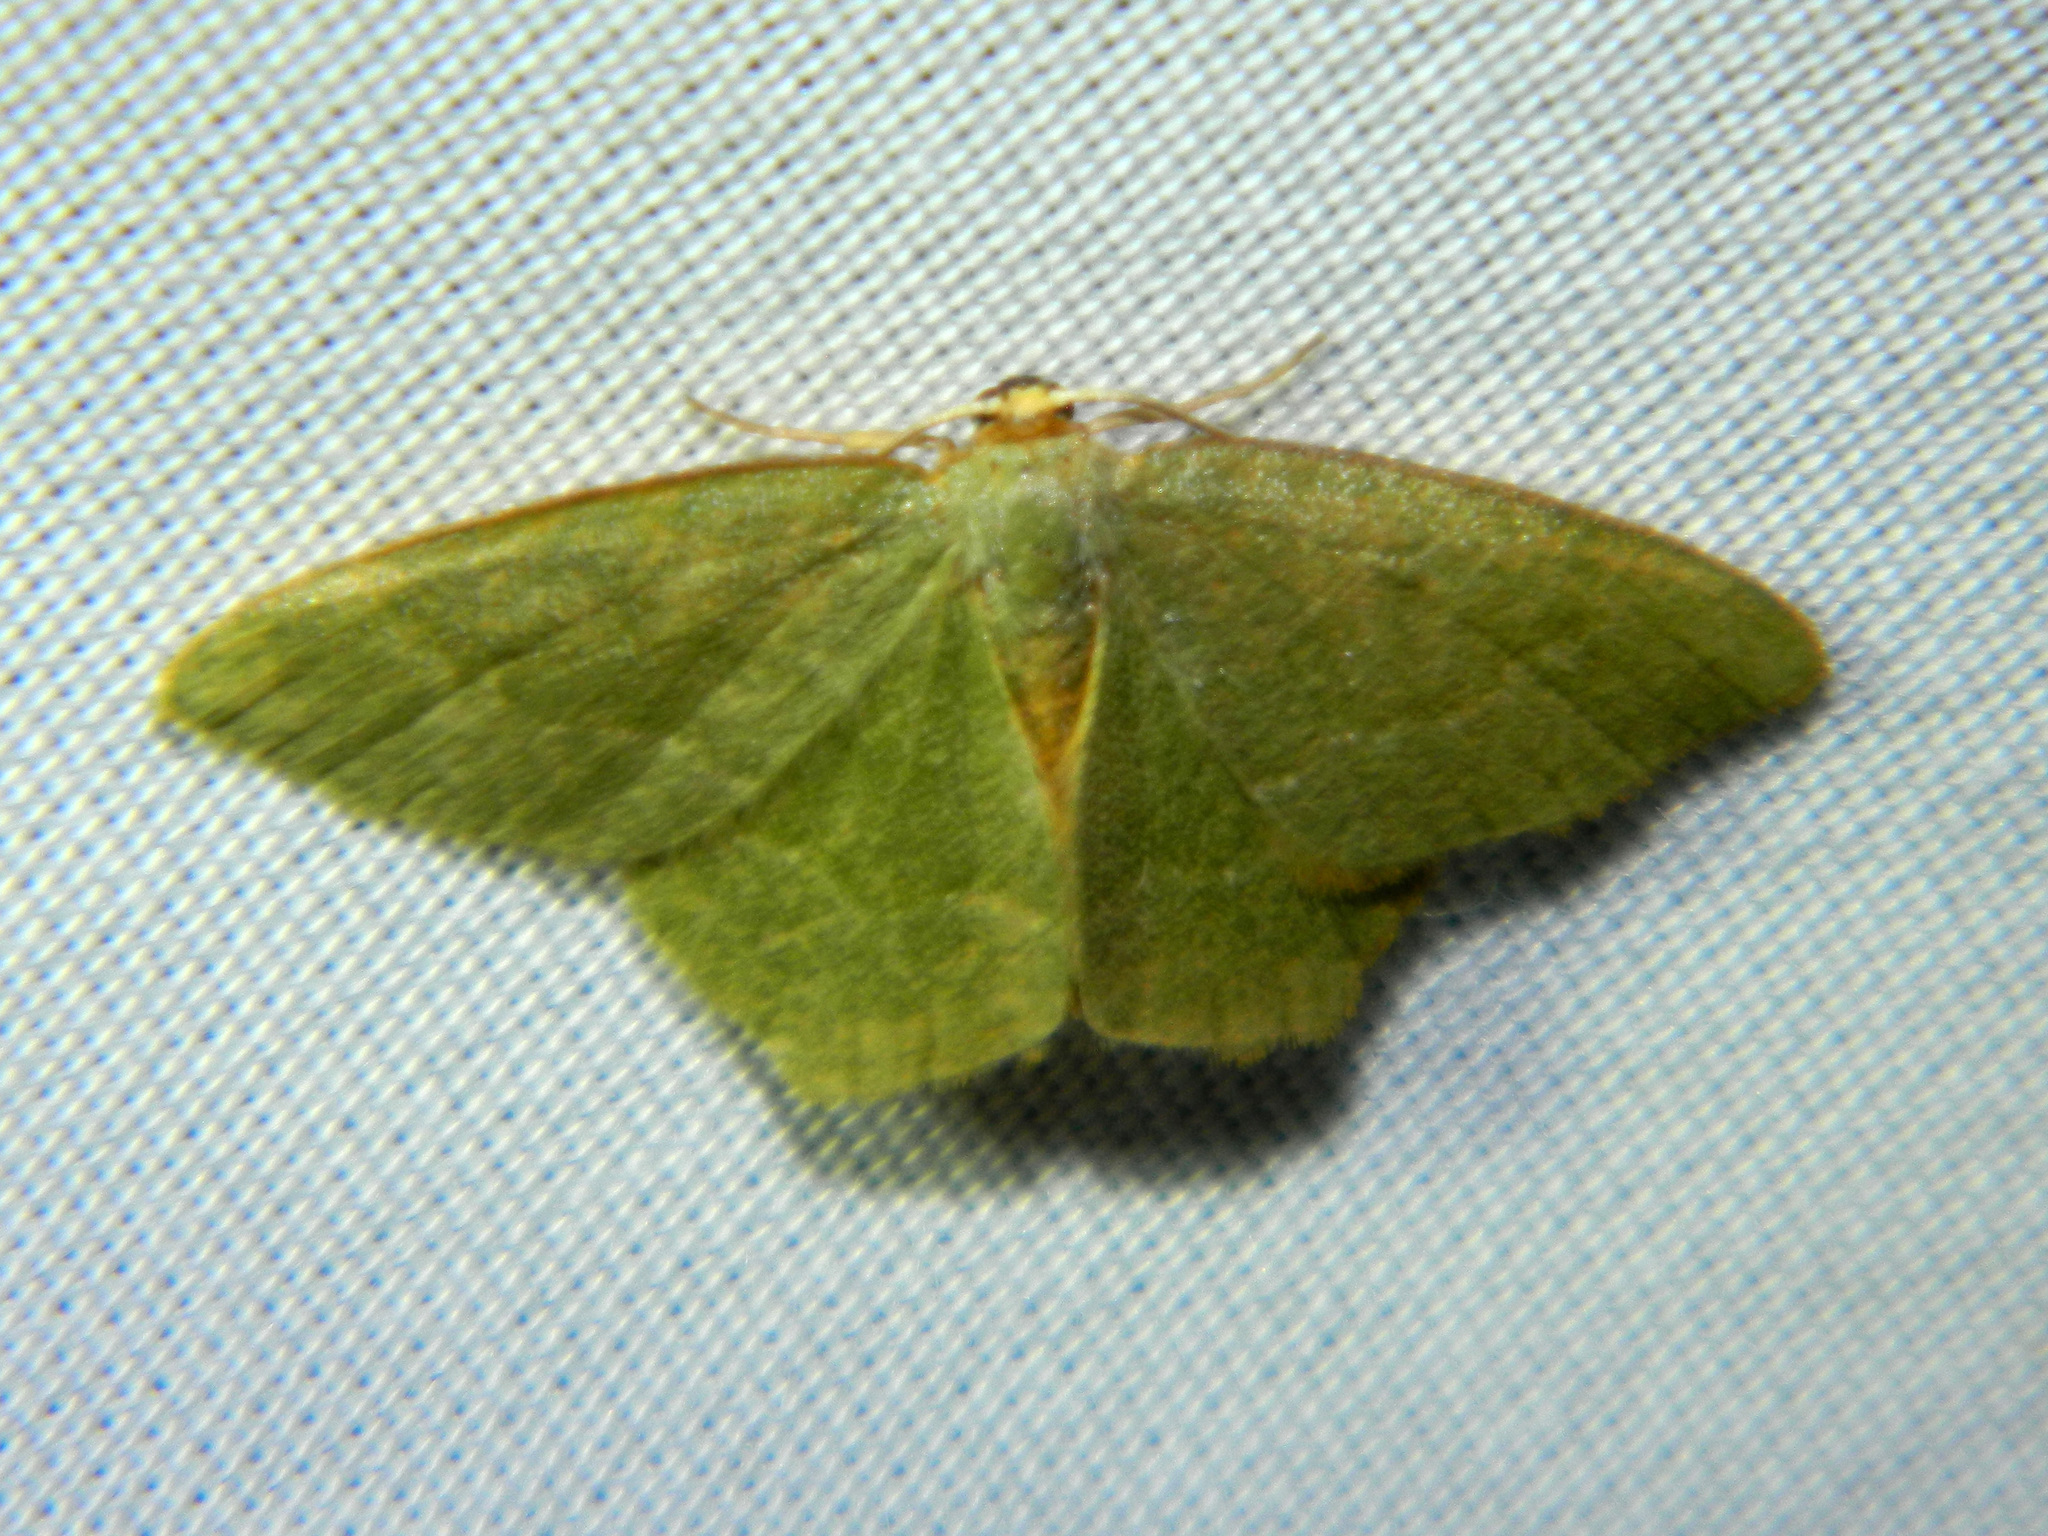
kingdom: Animalia
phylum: Arthropoda
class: Insecta
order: Lepidoptera
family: Geometridae
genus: Thalera
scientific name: Thalera pistasciaria
